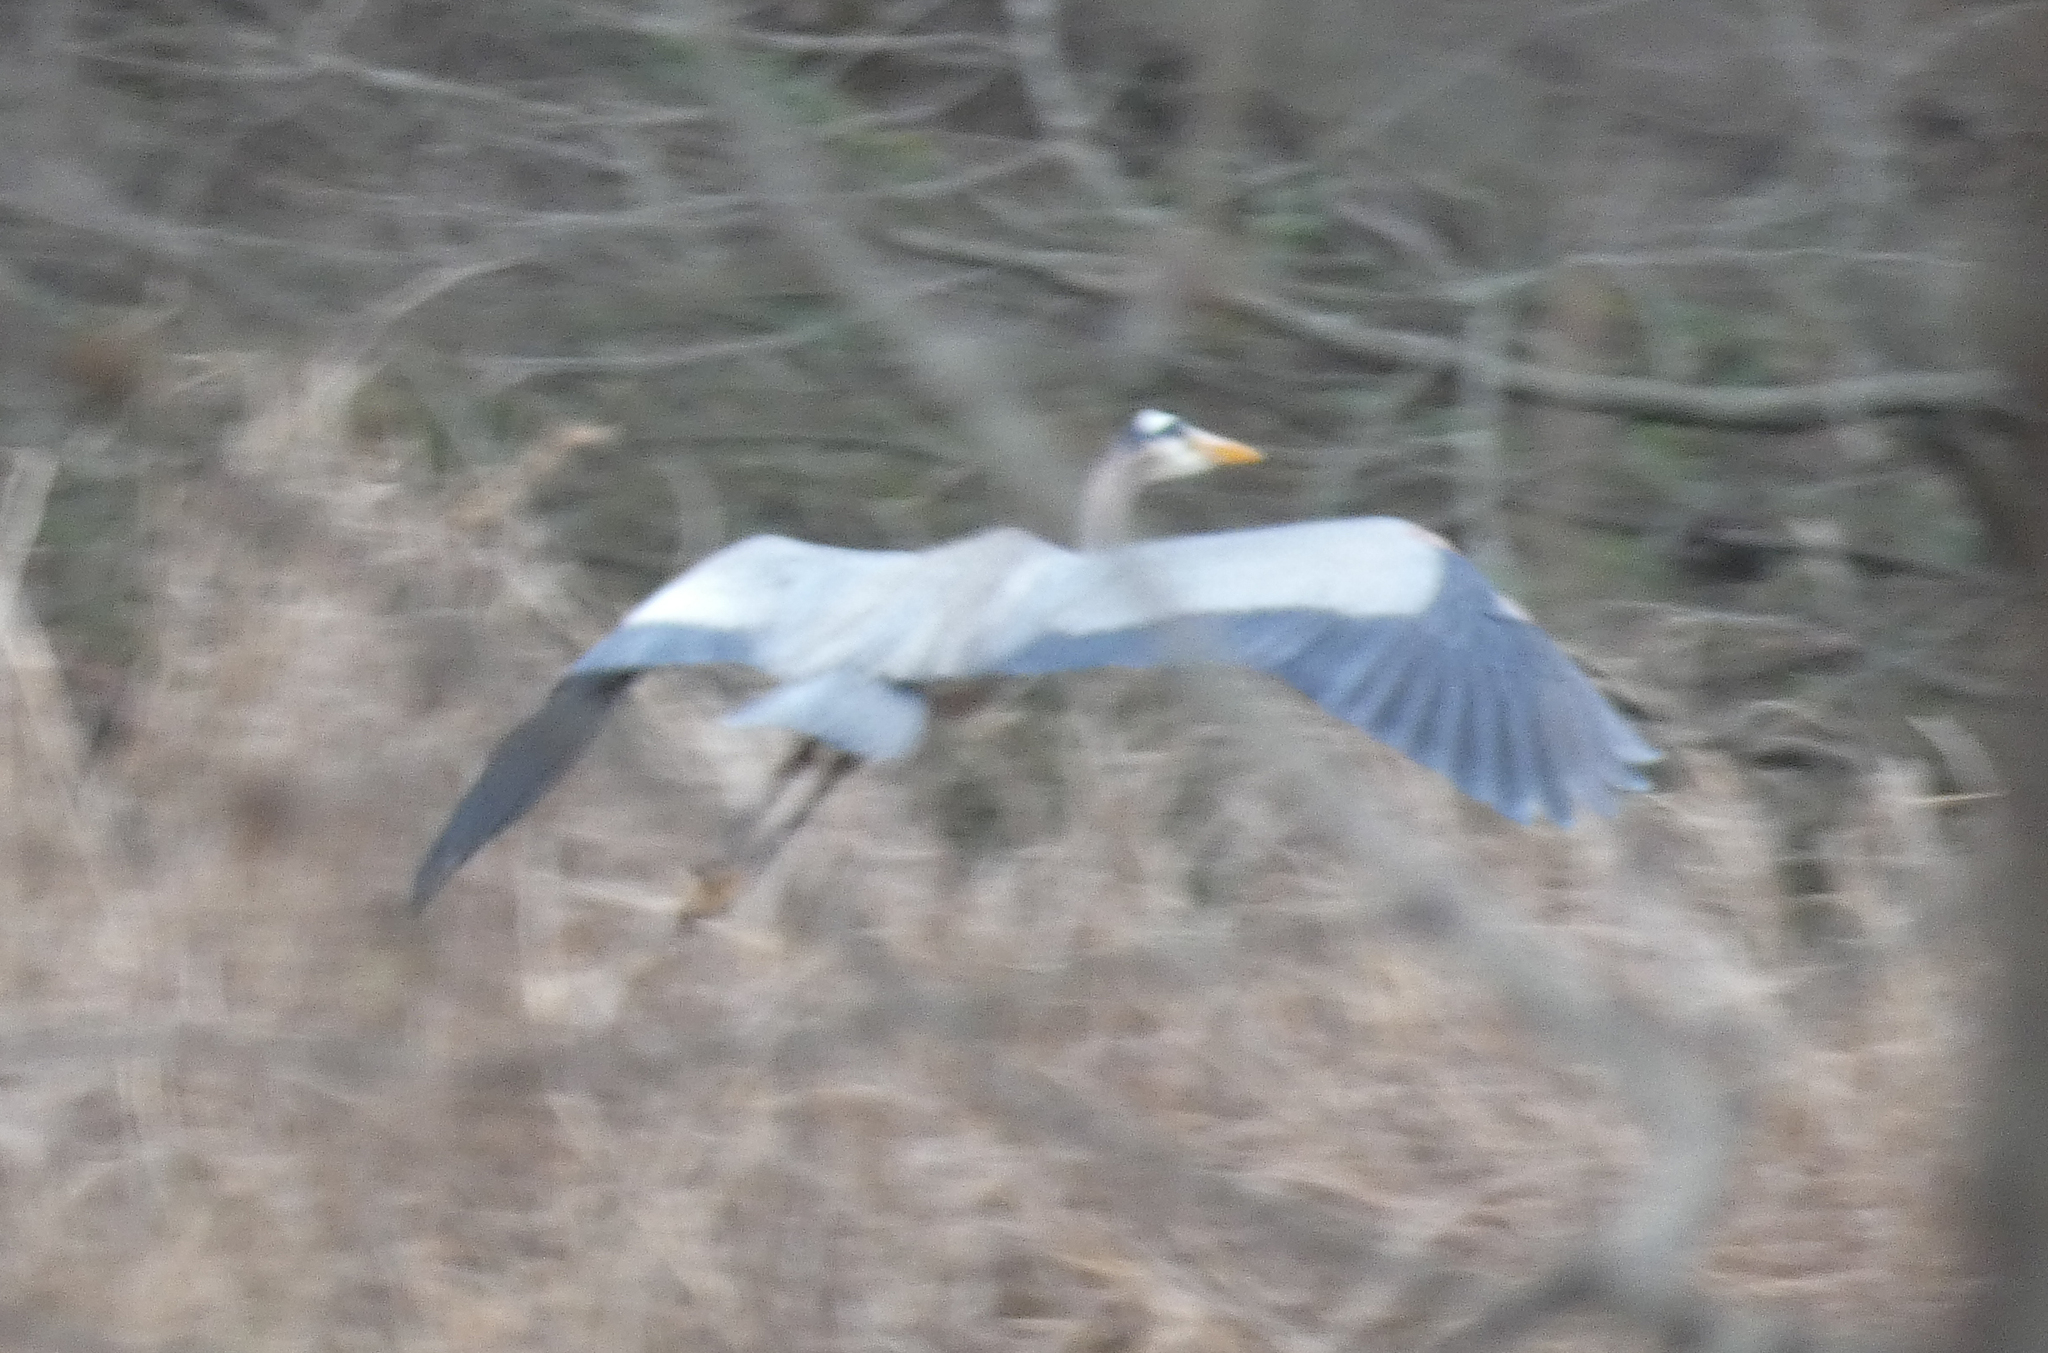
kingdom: Animalia
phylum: Chordata
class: Aves
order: Pelecaniformes
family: Ardeidae
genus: Ardea
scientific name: Ardea herodias
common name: Great blue heron
